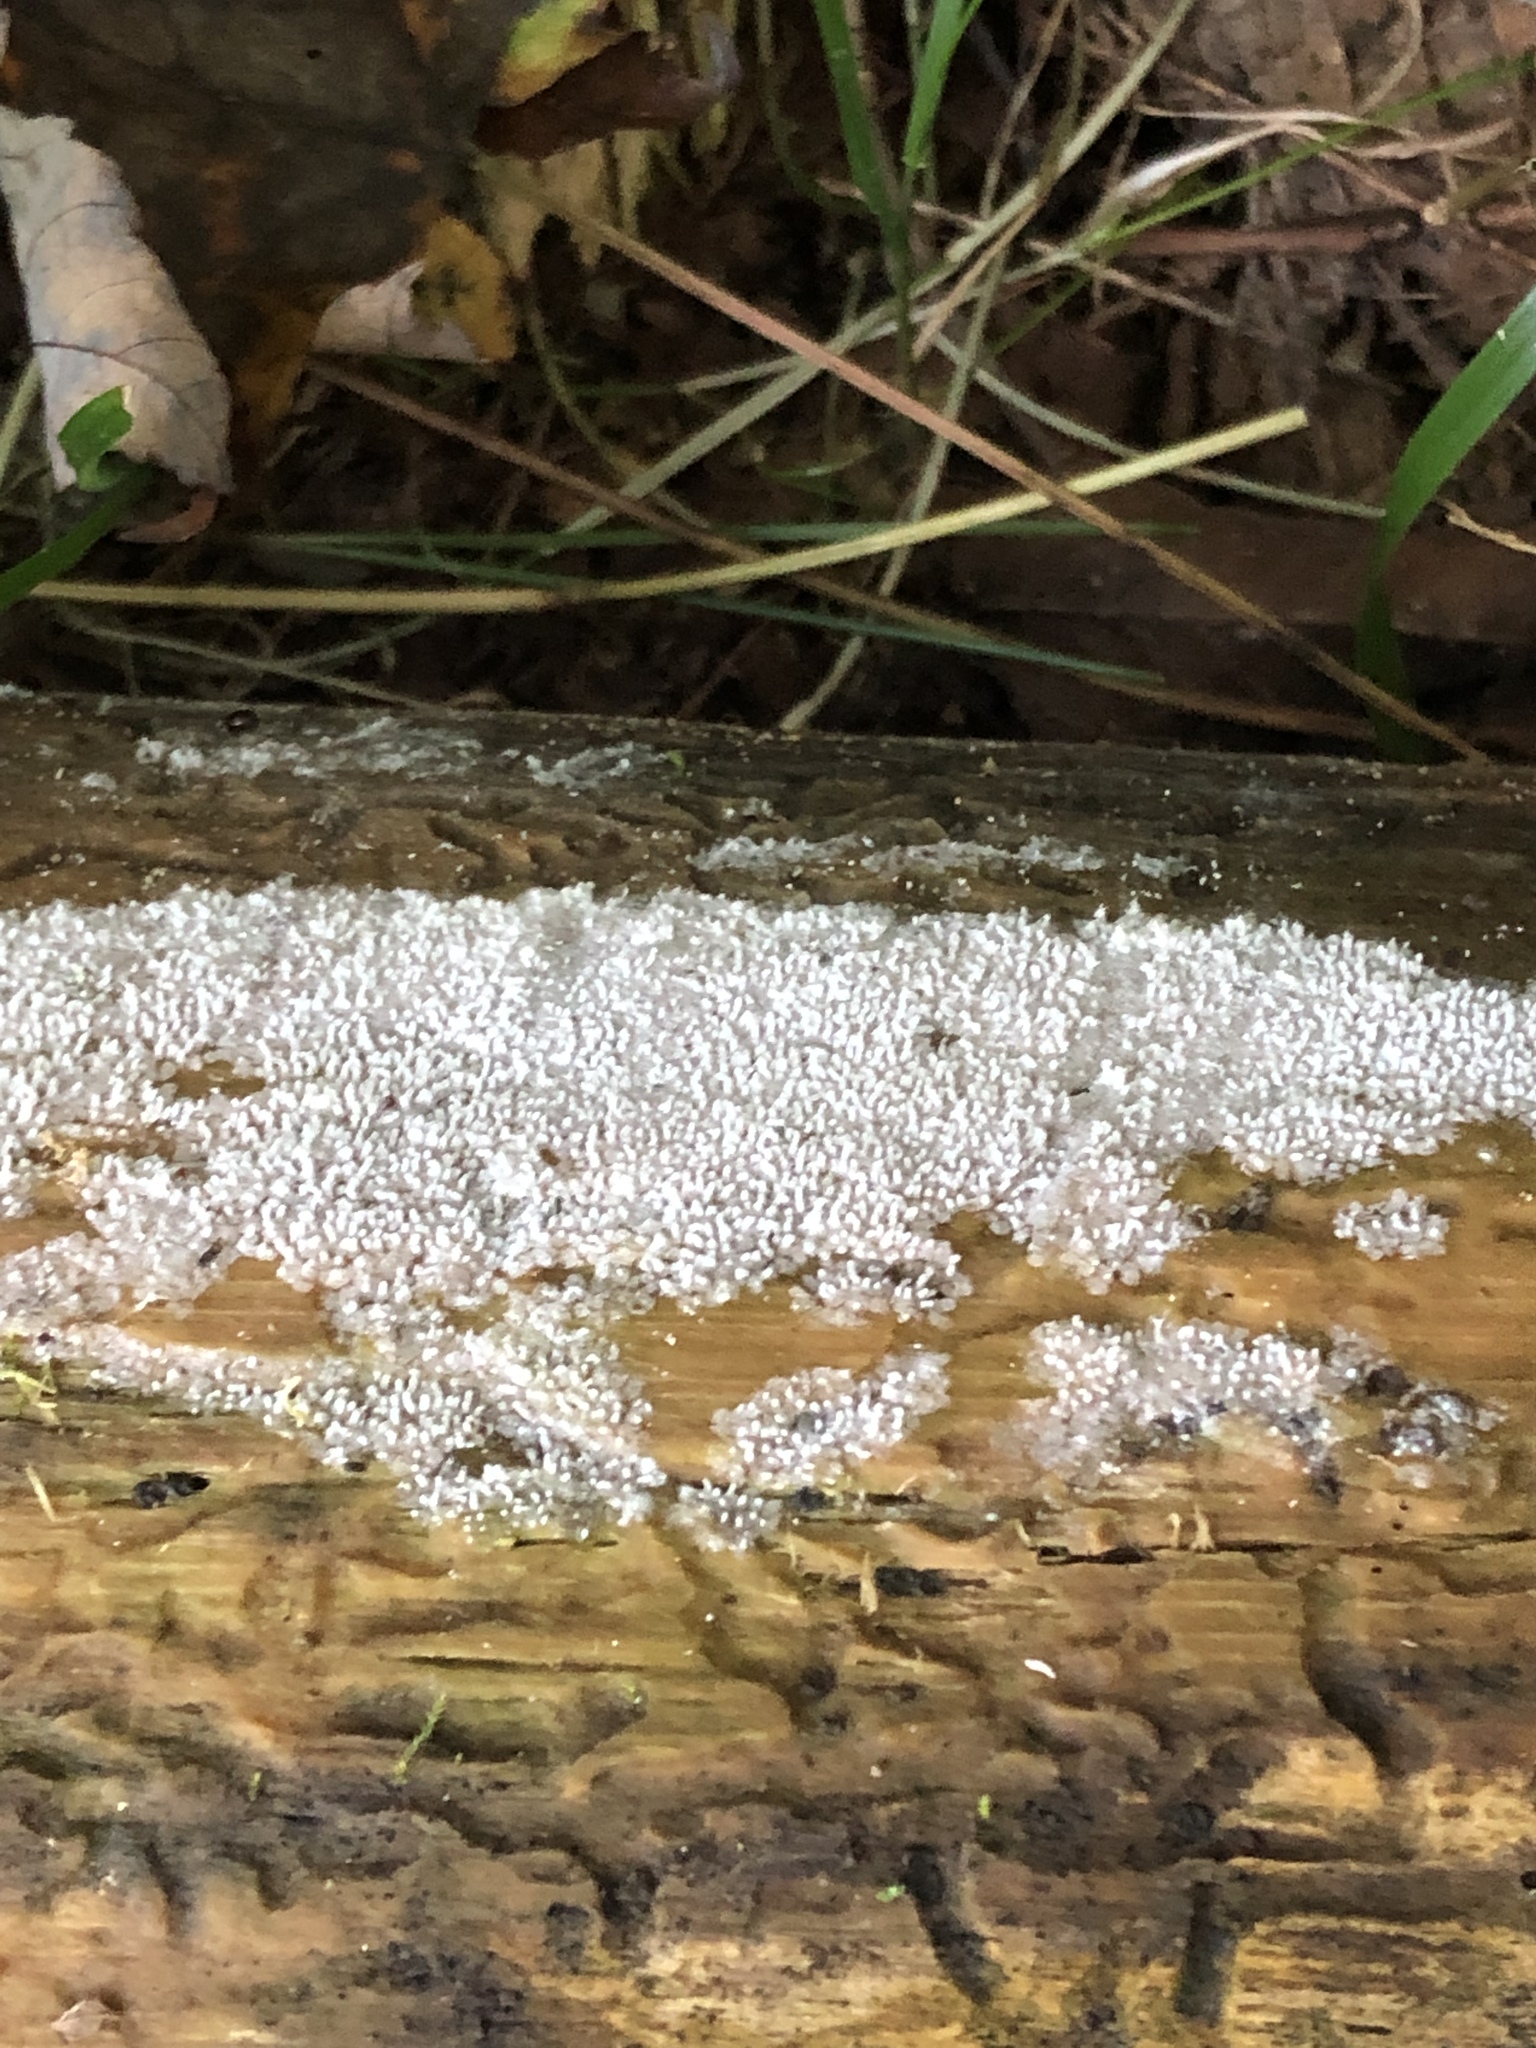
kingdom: Protozoa
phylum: Mycetozoa
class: Protosteliomycetes
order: Ceratiomyxales
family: Ceratiomyxaceae
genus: Ceratiomyxa
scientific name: Ceratiomyxa fruticulosa
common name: Honeycomb coral slime mold
